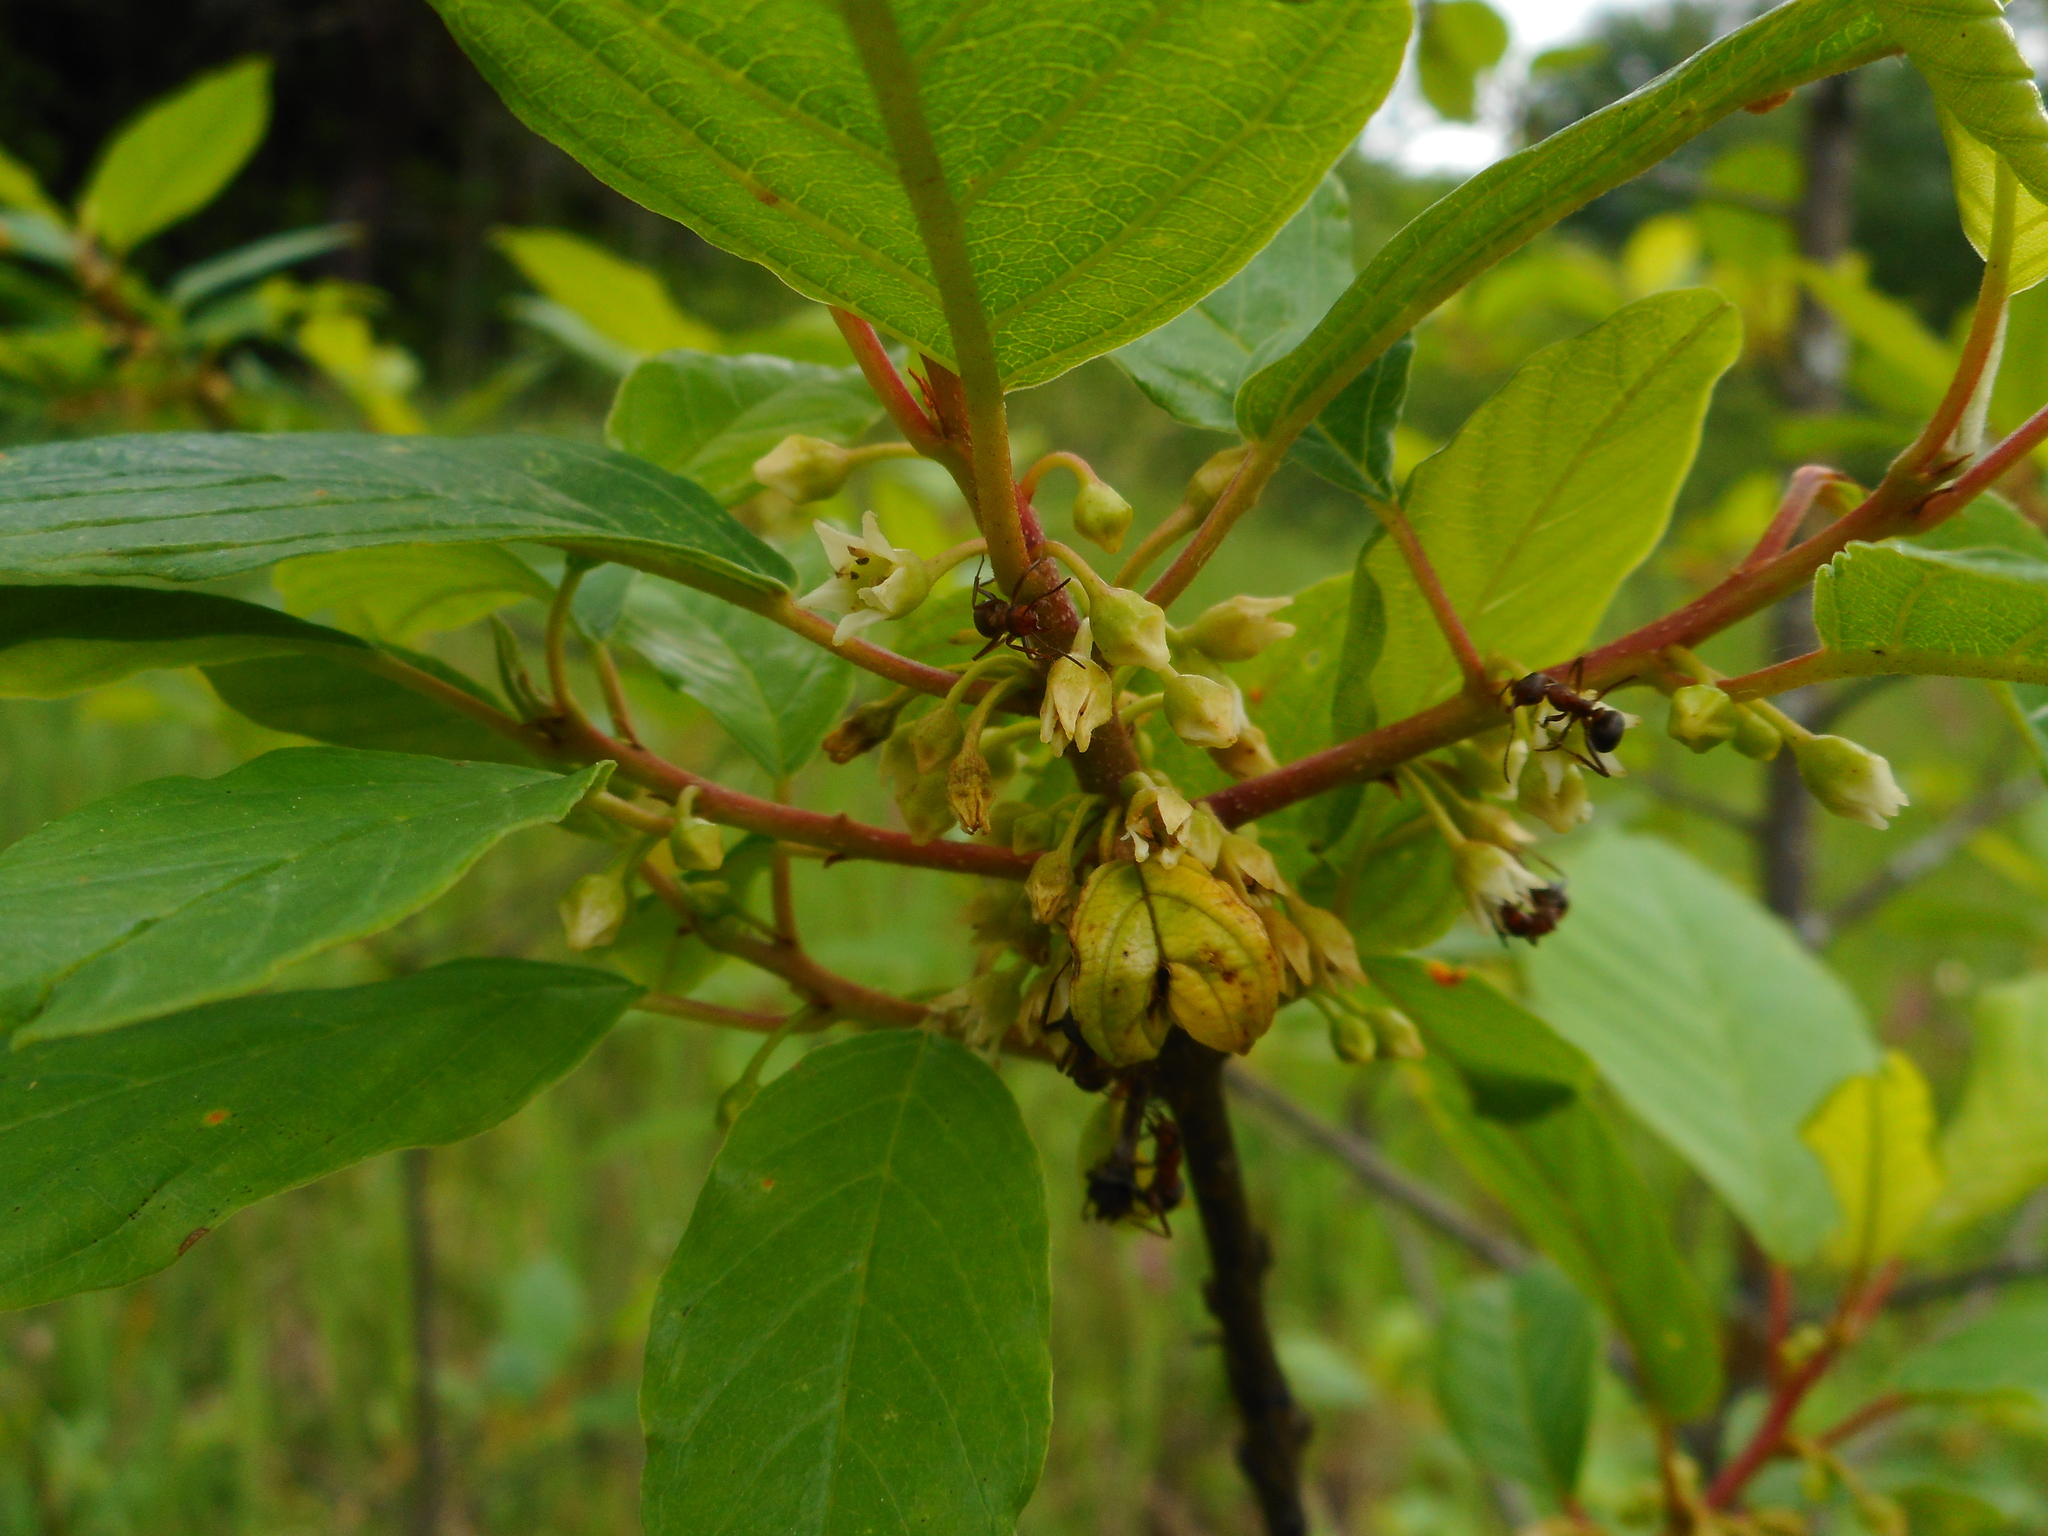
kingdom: Plantae
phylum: Tracheophyta
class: Magnoliopsida
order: Rosales
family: Rhamnaceae
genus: Frangula
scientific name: Frangula alnus
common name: Alder buckthorn
